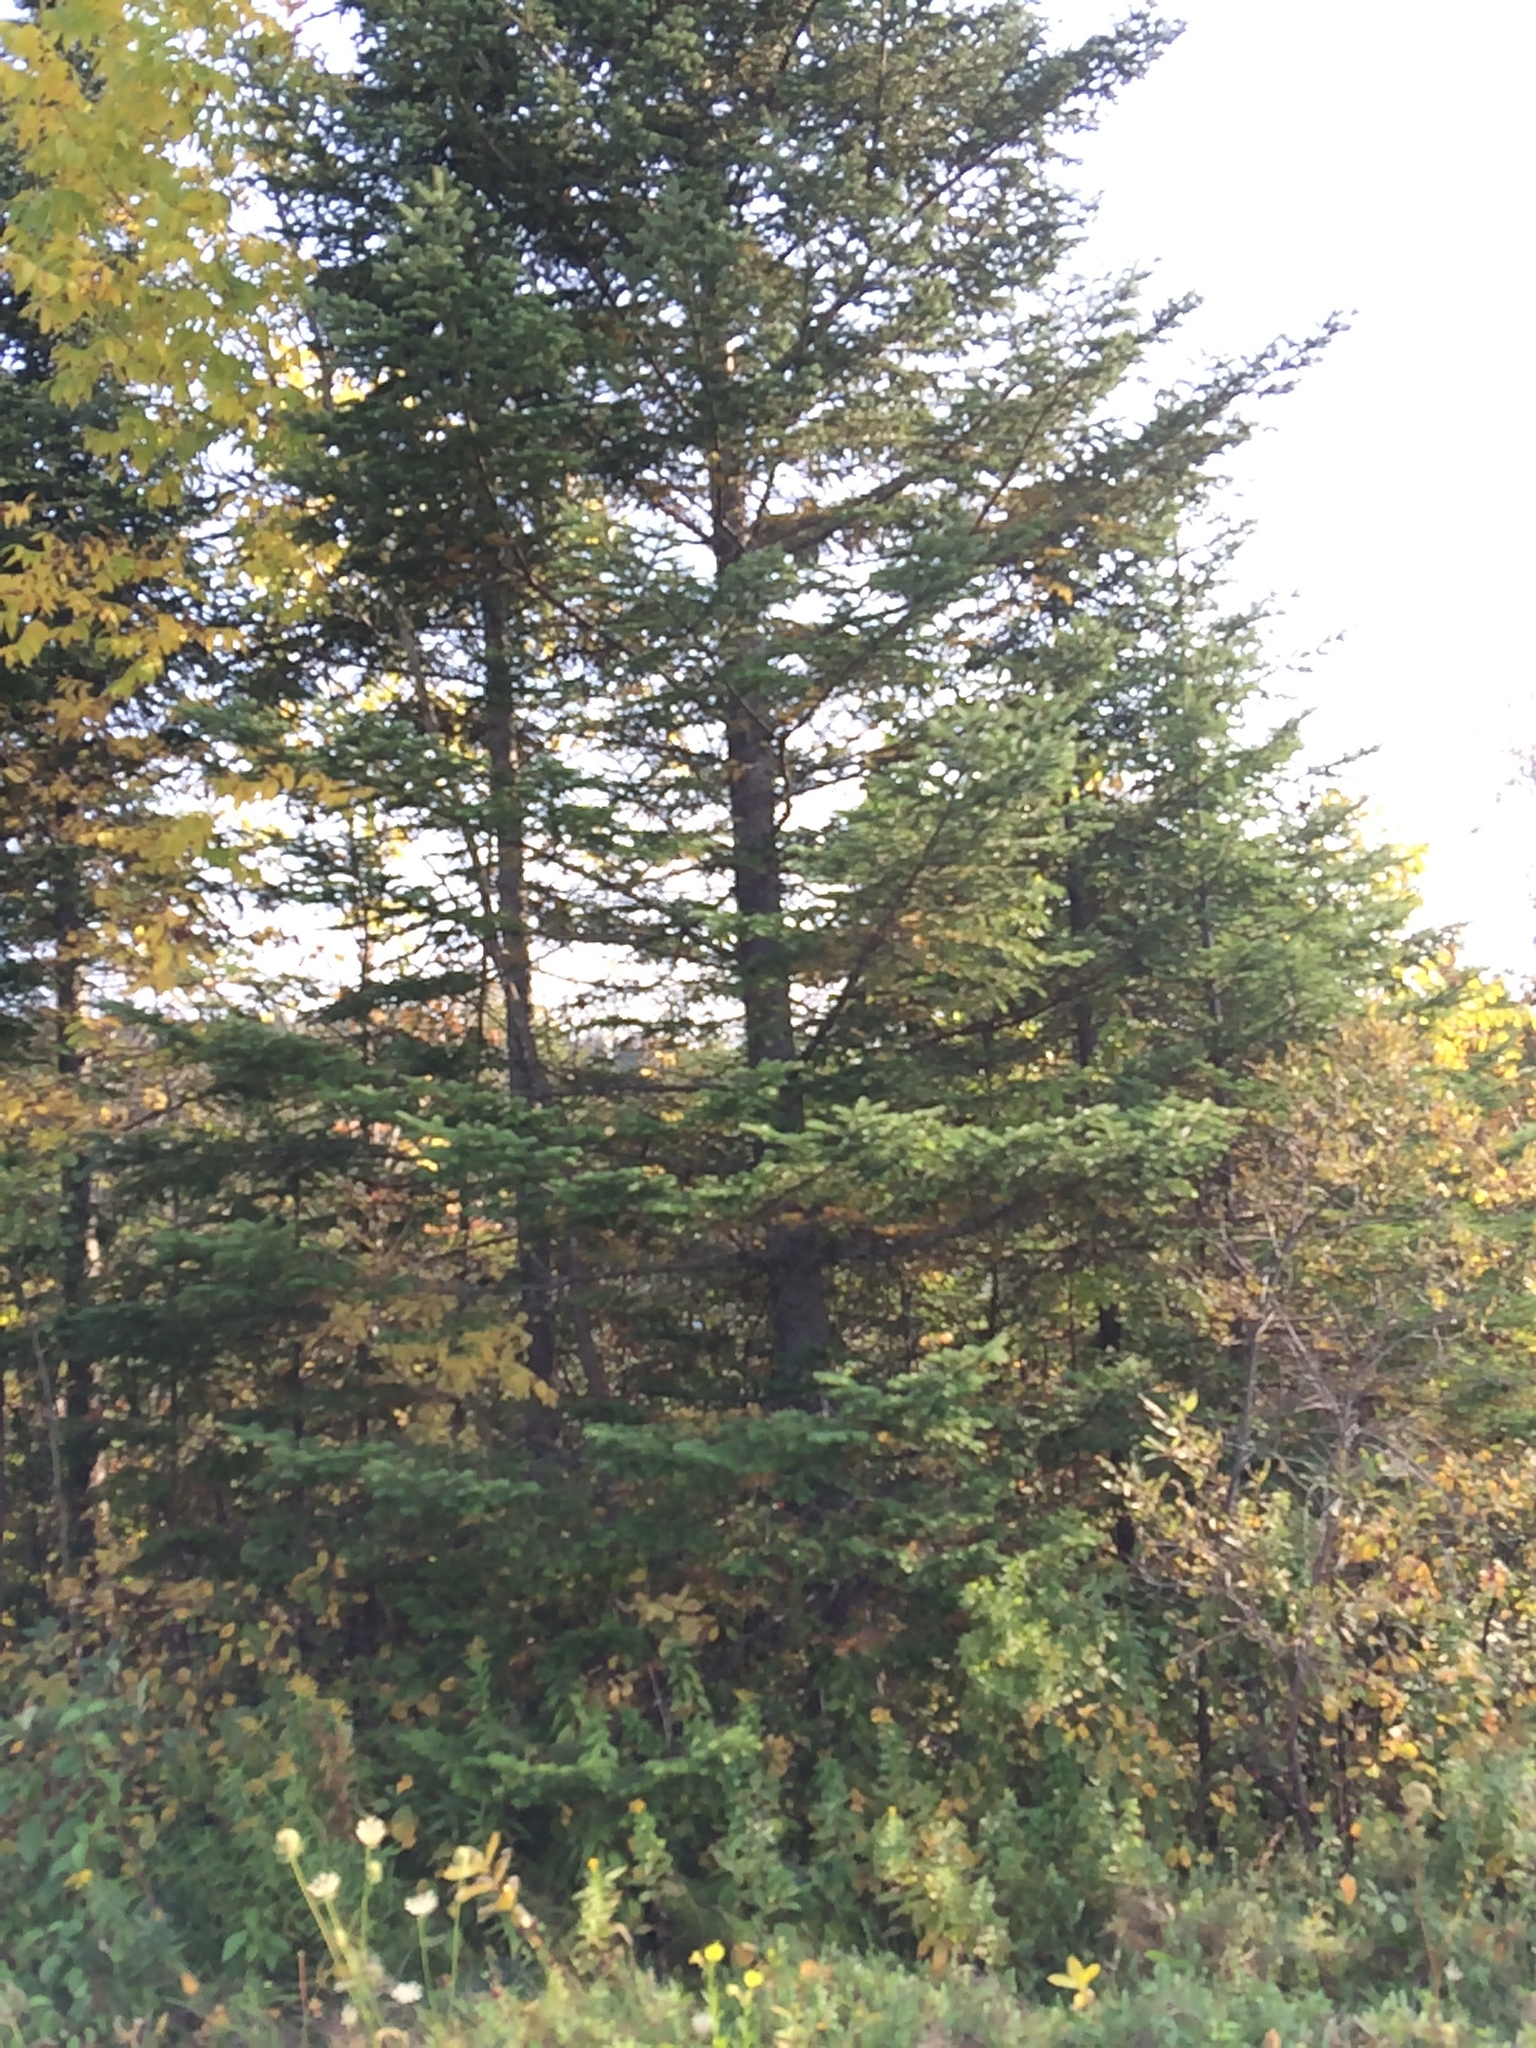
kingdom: Plantae
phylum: Tracheophyta
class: Pinopsida
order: Pinales
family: Pinaceae
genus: Abies
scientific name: Abies balsamea
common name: Balsam fir
